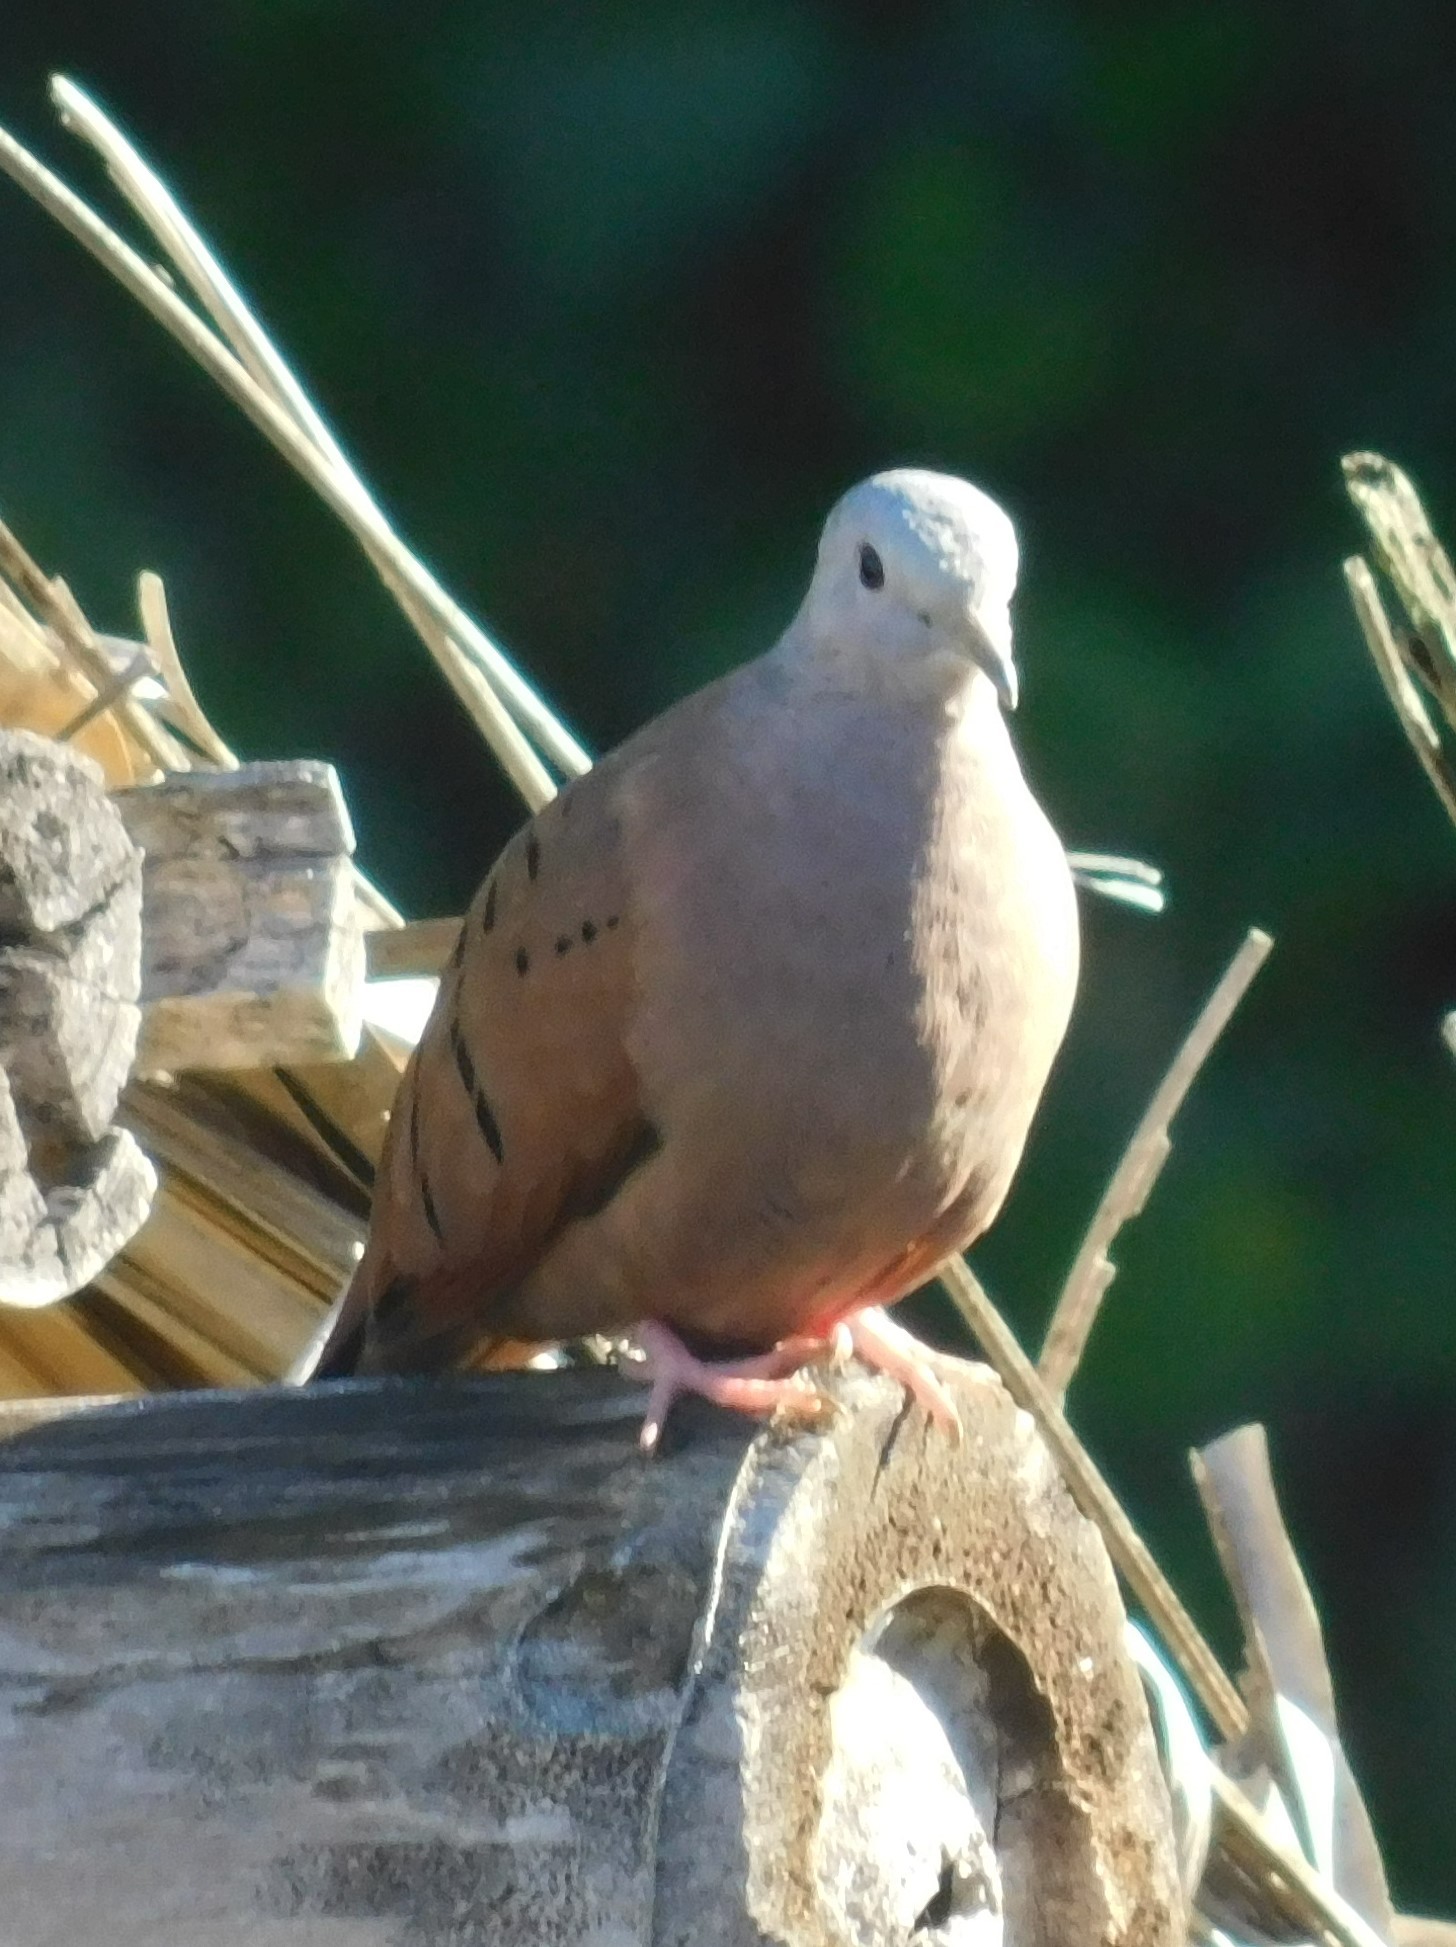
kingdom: Animalia
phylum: Chordata
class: Aves
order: Columbiformes
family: Columbidae
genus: Columbina
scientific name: Columbina talpacoti
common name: Ruddy ground dove
